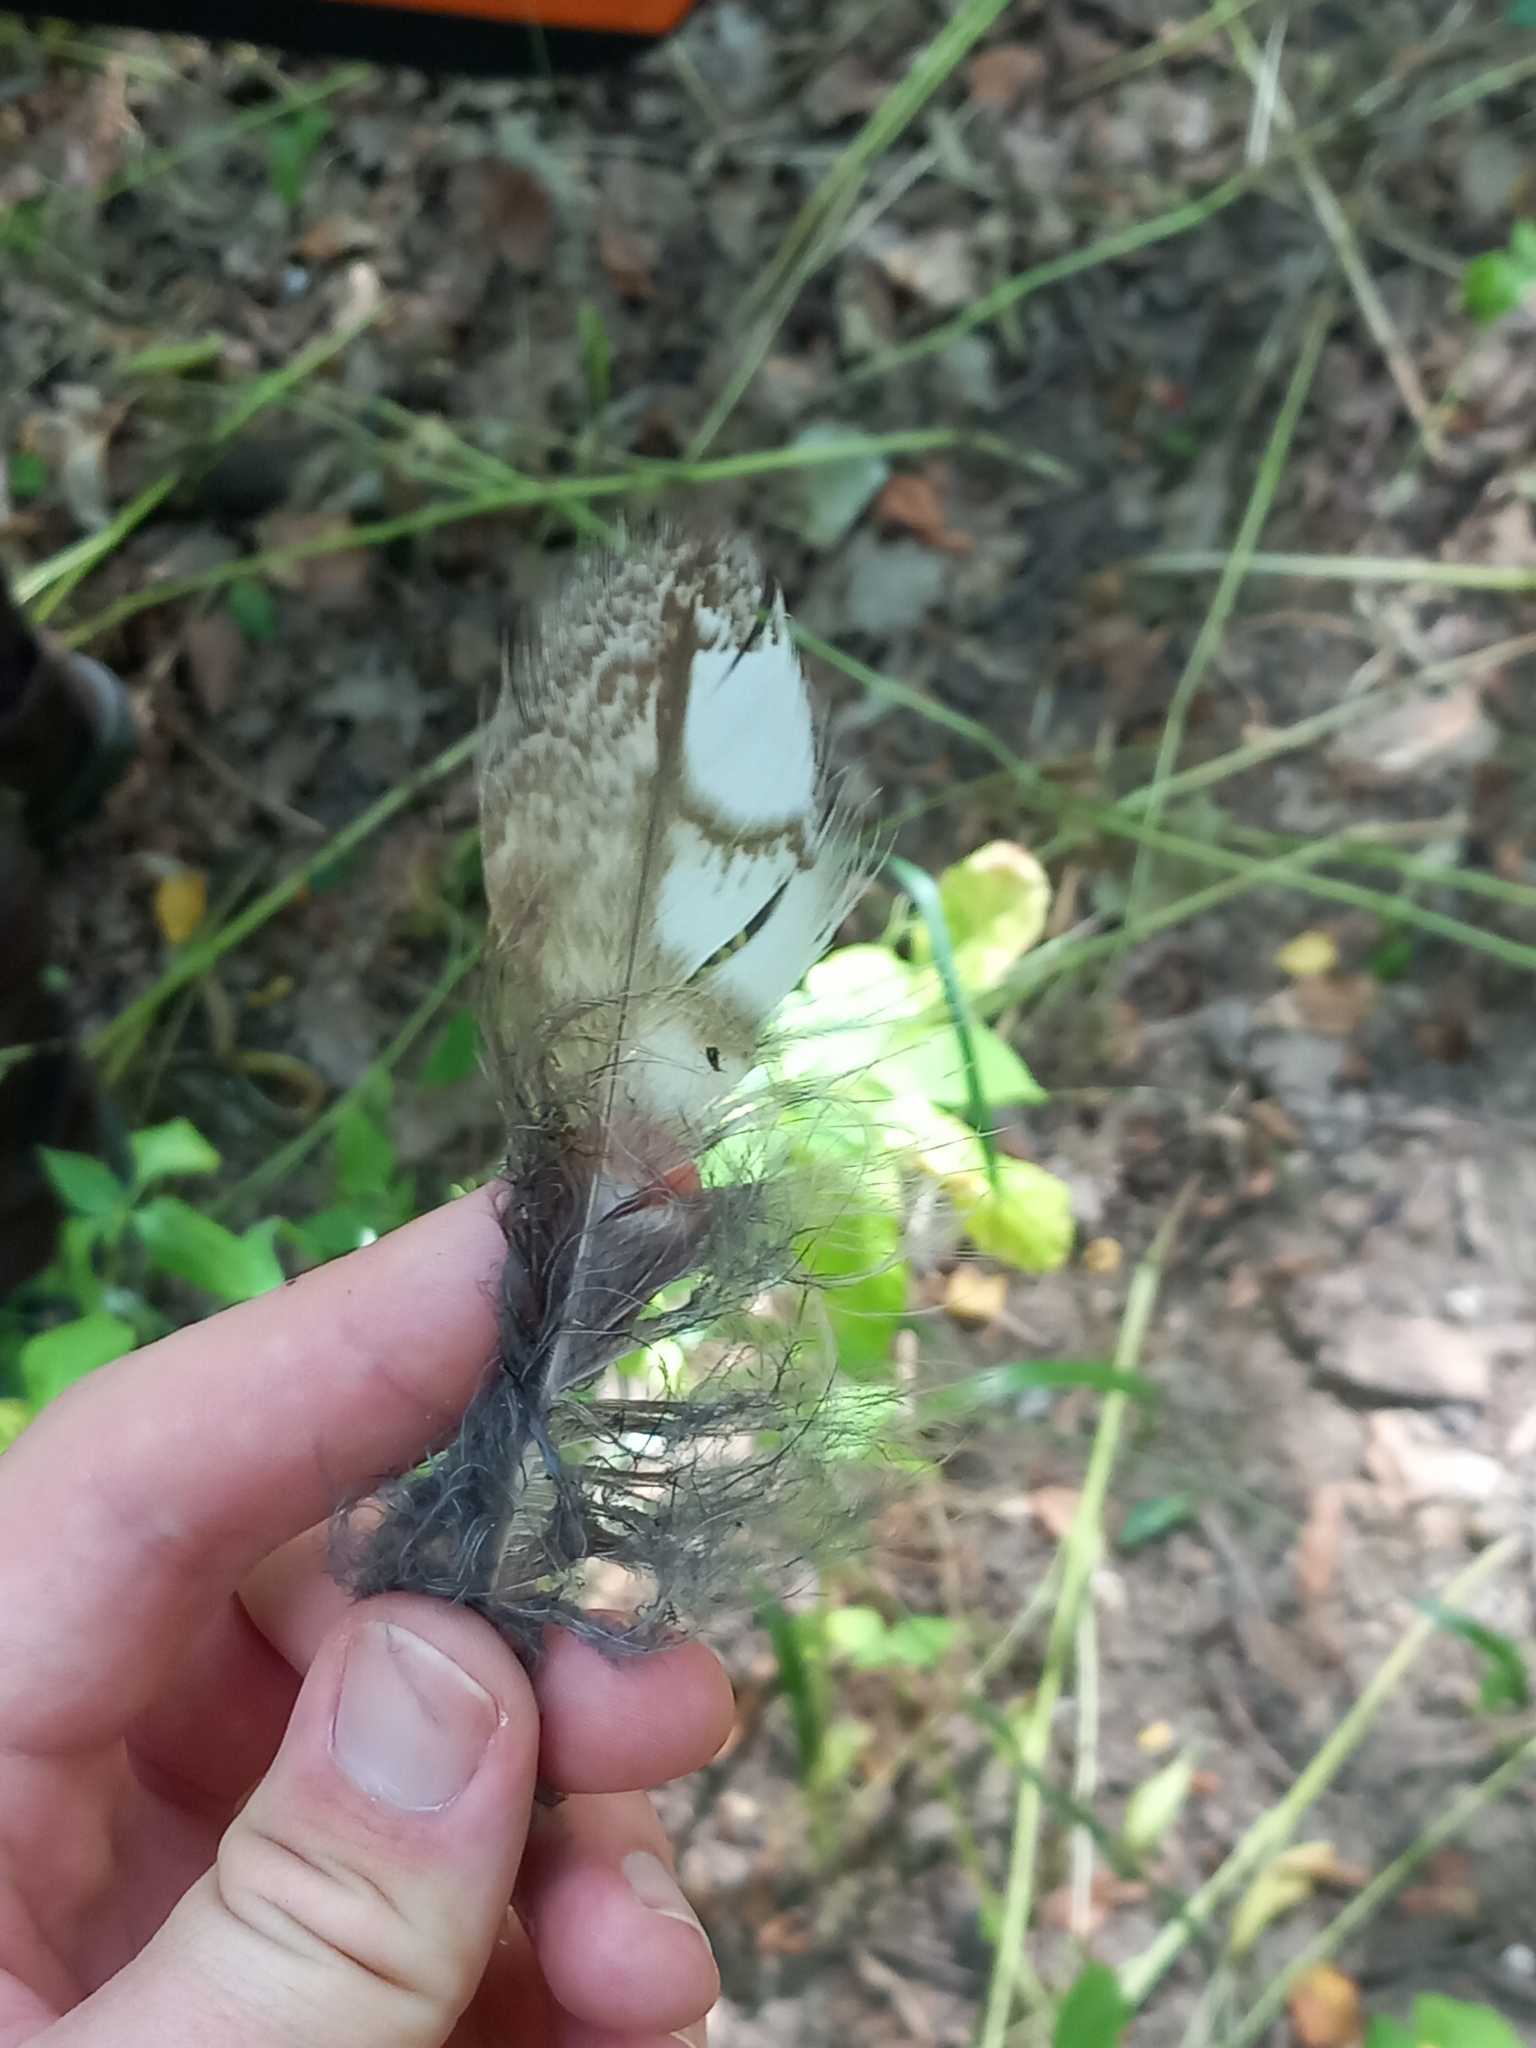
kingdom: Animalia
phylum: Chordata
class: Aves
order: Strigiformes
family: Strigidae
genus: Strix
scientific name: Strix aluco
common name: Tawny owl
